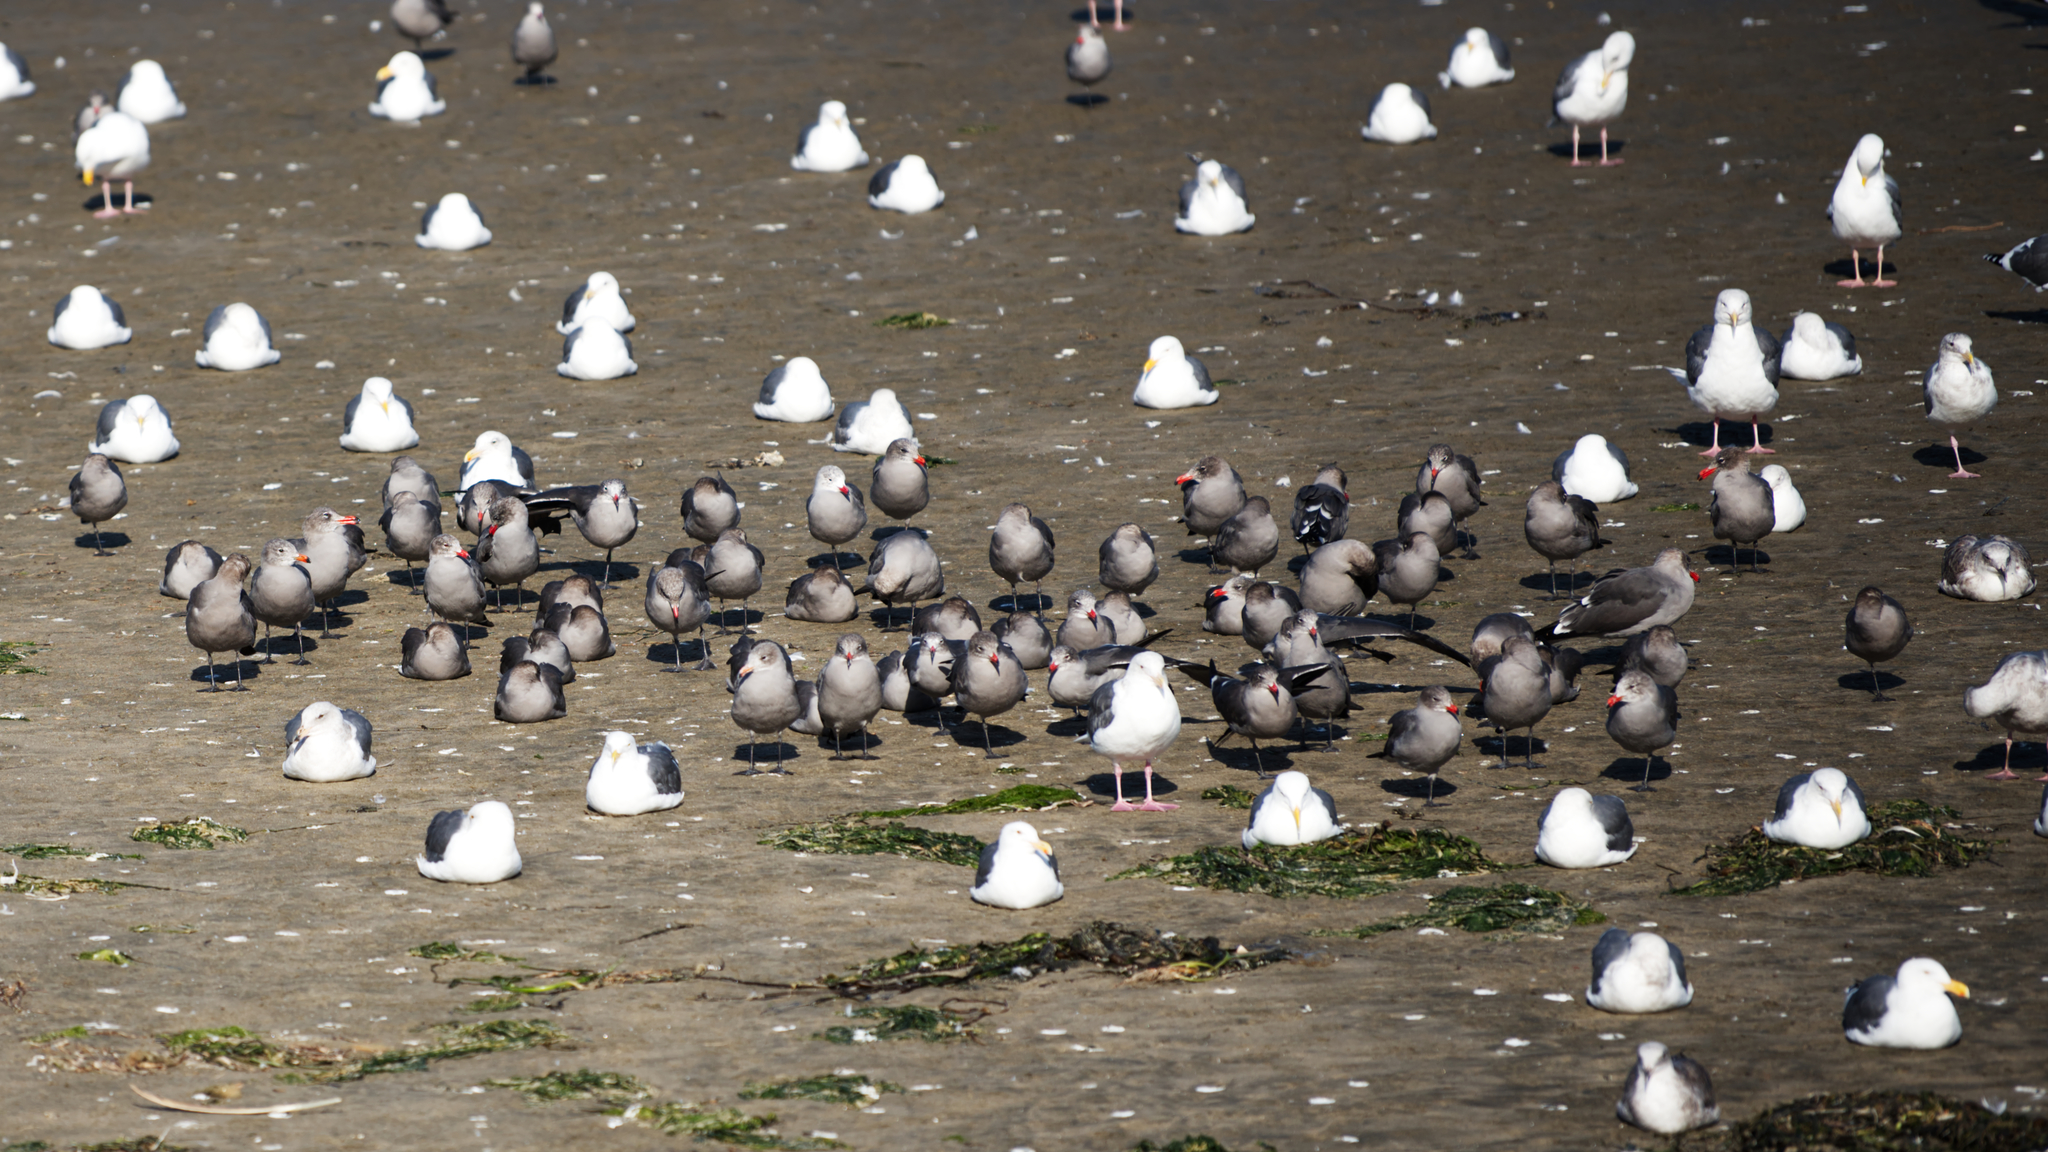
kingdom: Animalia
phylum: Chordata
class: Aves
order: Charadriiformes
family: Laridae
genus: Larus
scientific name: Larus heermanni
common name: Heermann's gull
